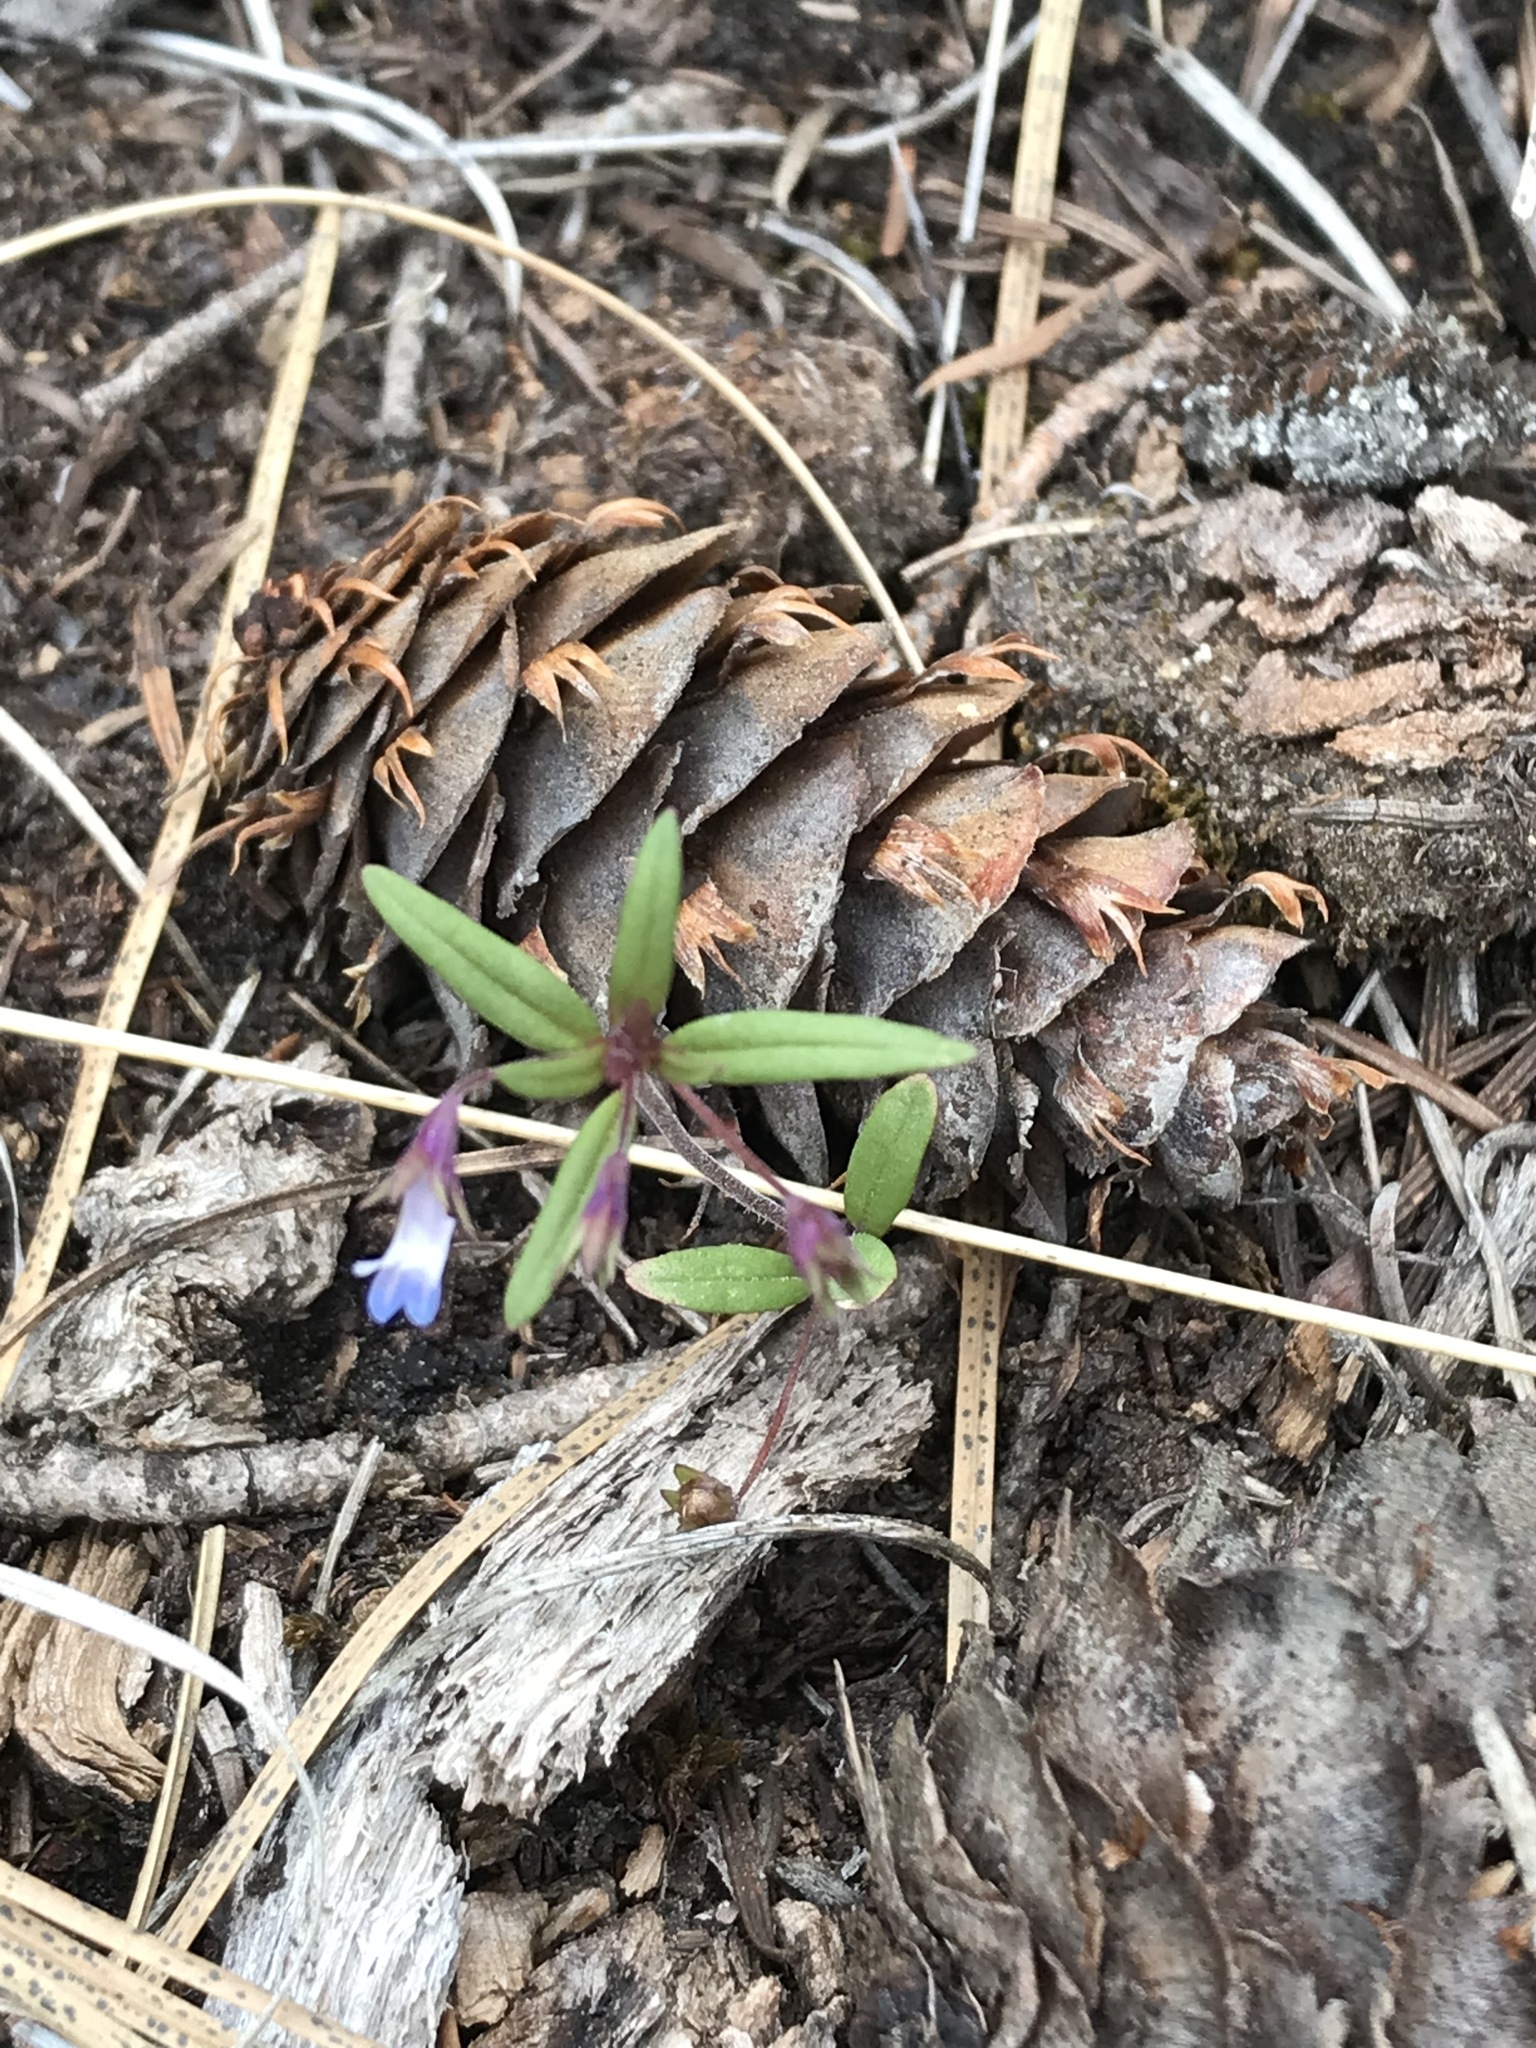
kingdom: Plantae
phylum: Tracheophyta
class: Magnoliopsida
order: Lamiales
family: Plantaginaceae
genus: Collinsia
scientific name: Collinsia parviflora
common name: Blue-lips
